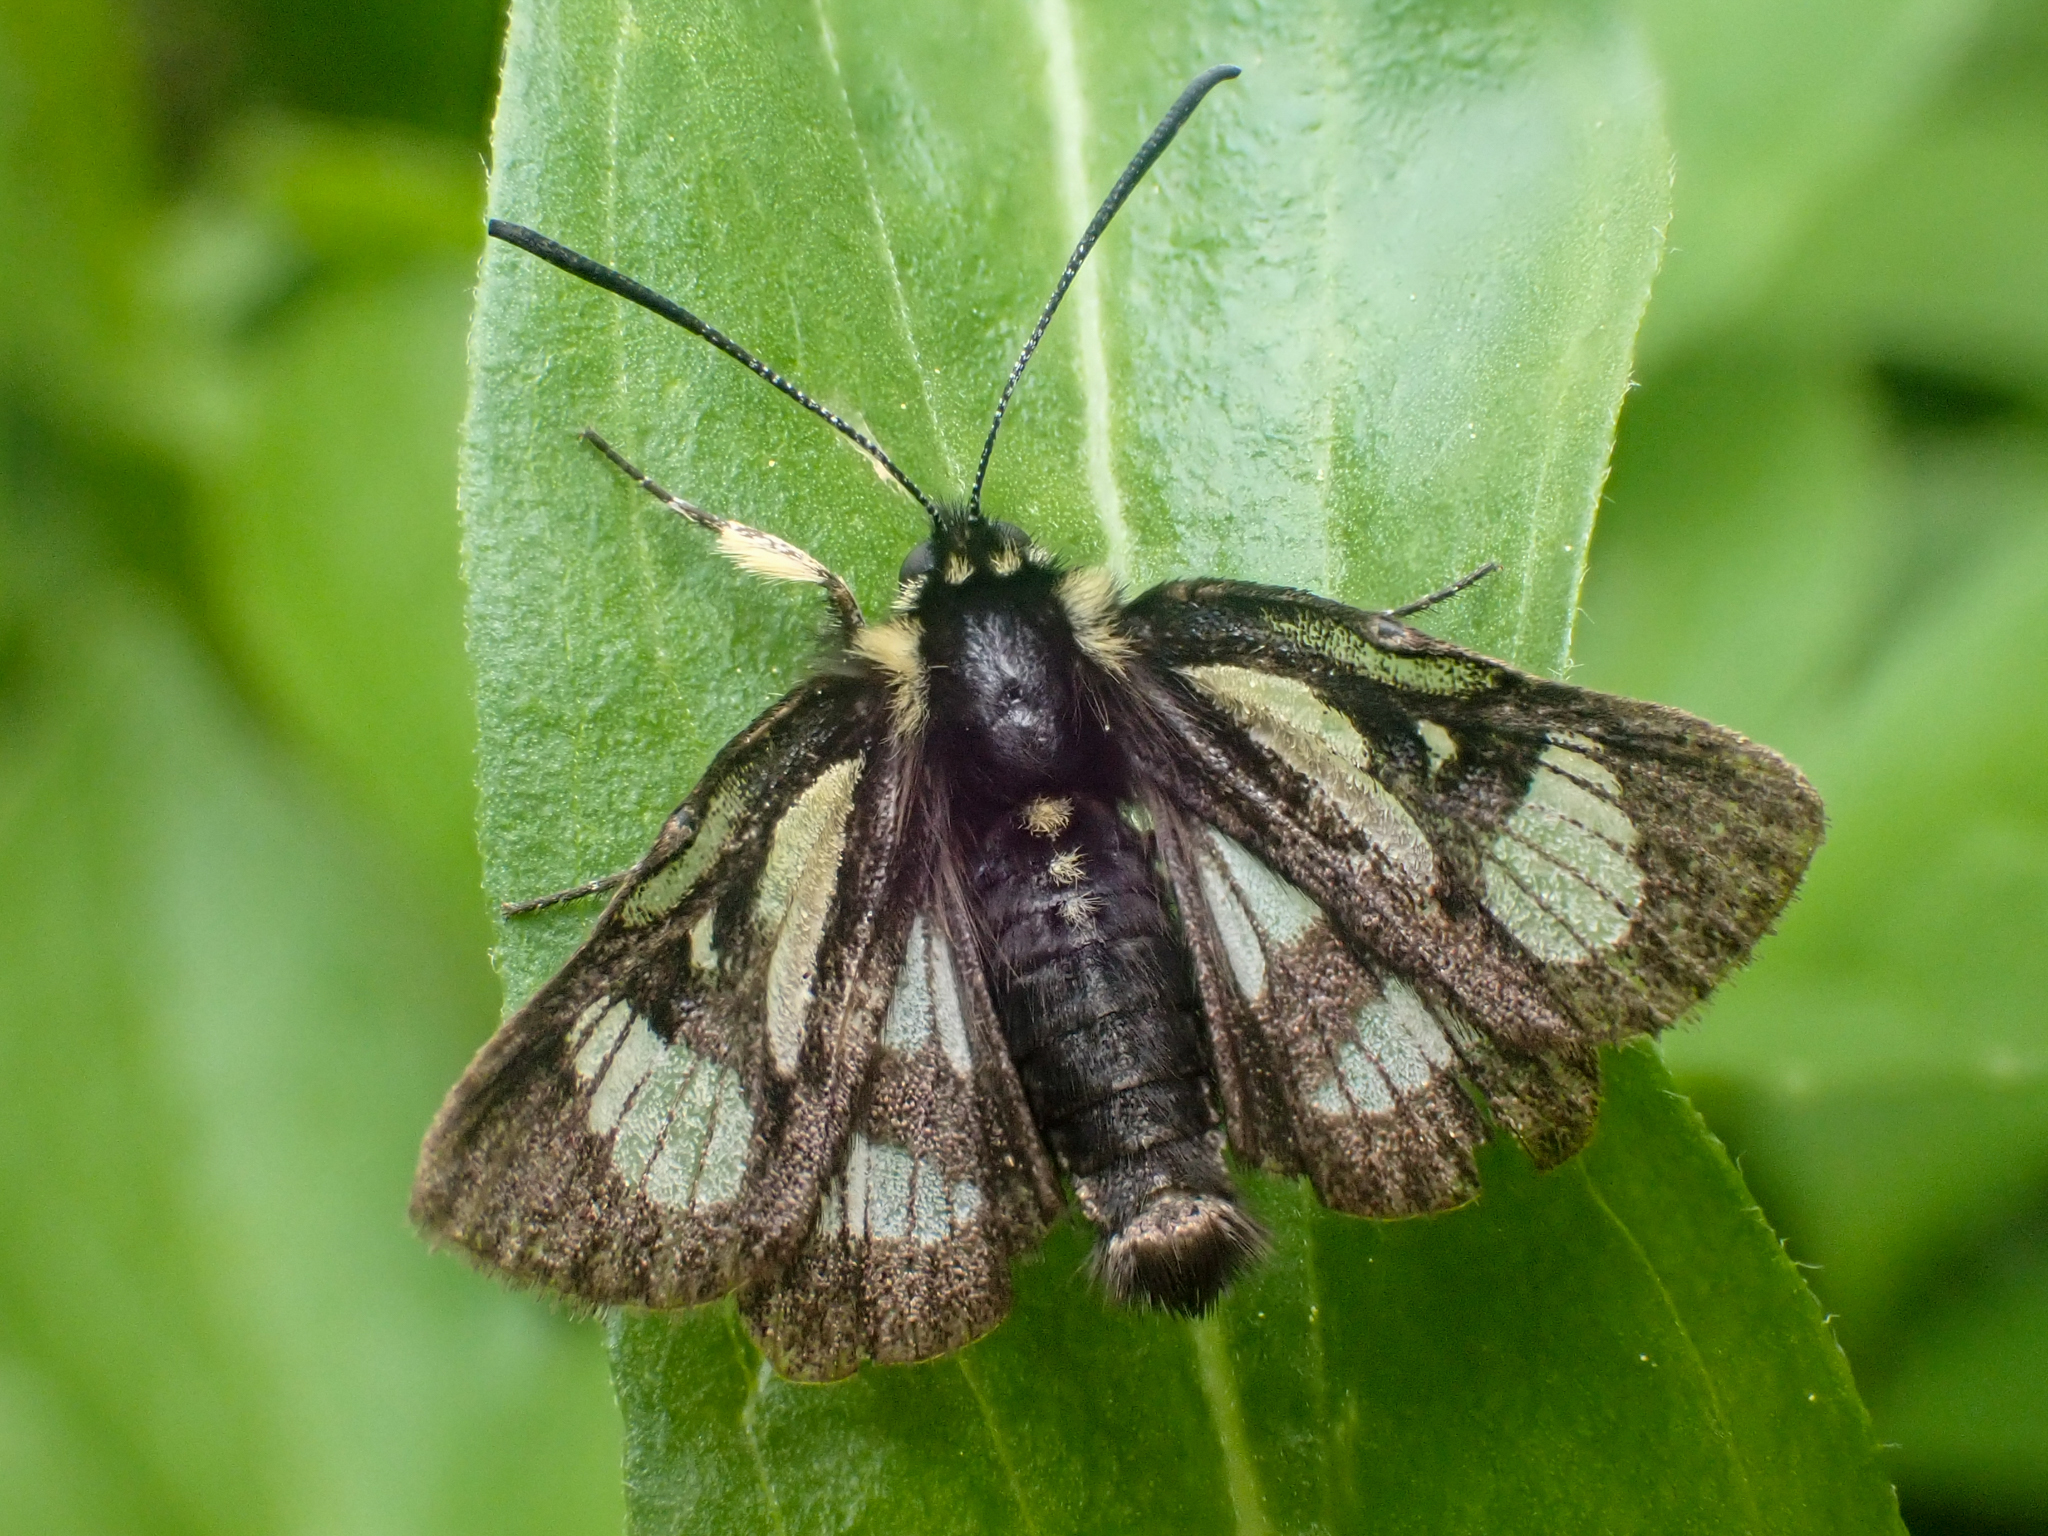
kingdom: Animalia
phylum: Arthropoda
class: Insecta
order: Lepidoptera
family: Noctuidae
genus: Alypia
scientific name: Alypia maccullochii
